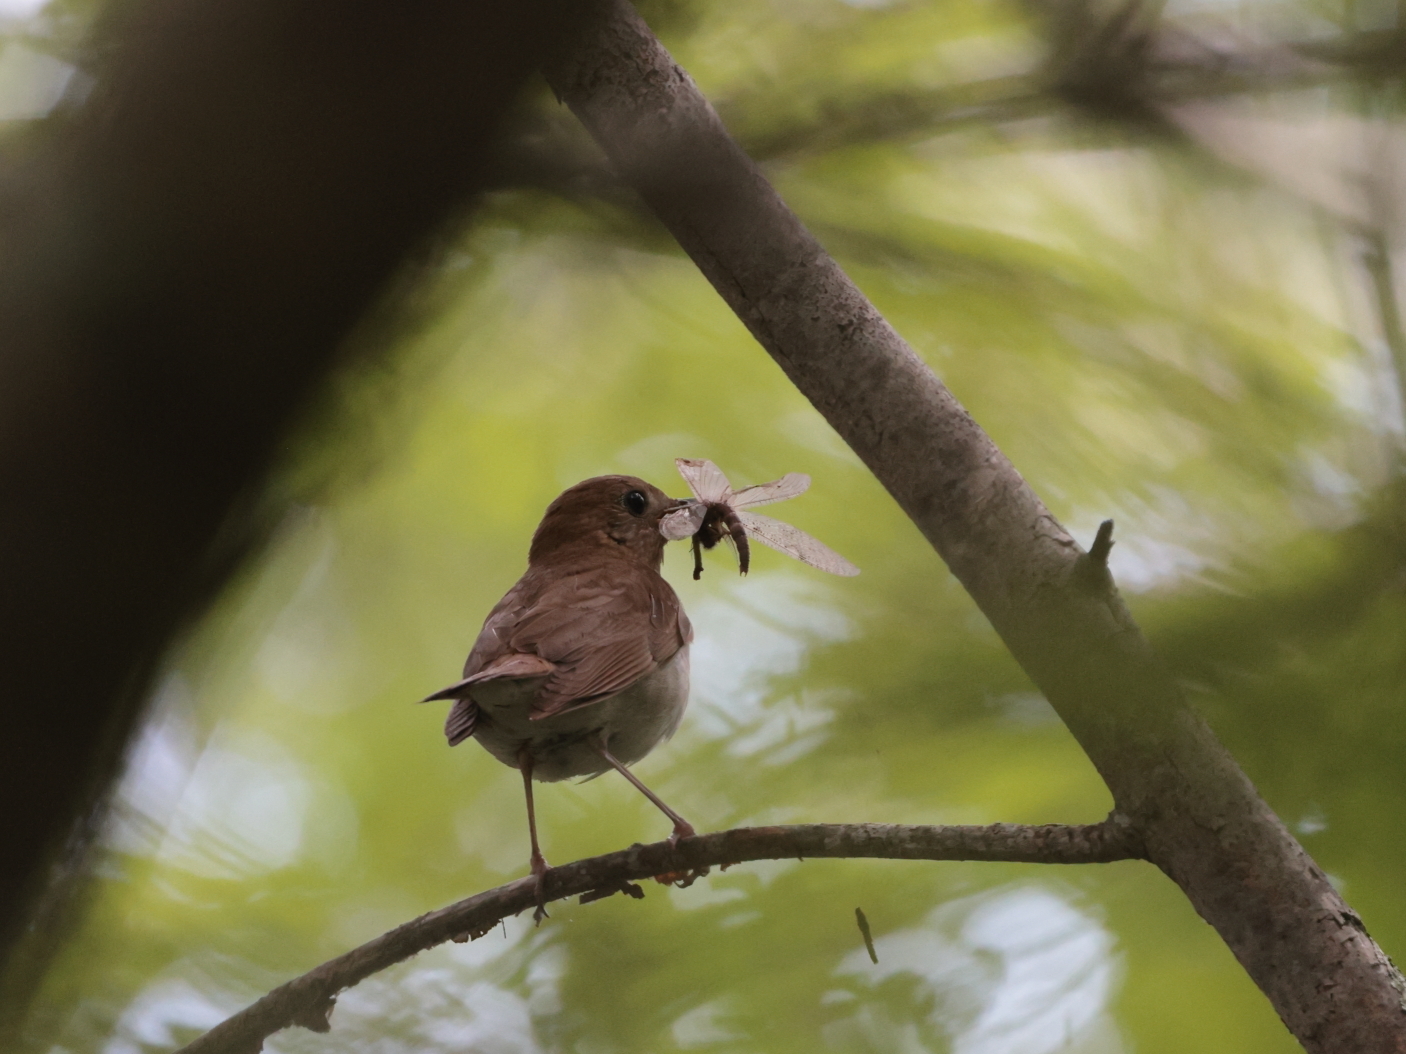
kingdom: Animalia
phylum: Chordata
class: Aves
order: Passeriformes
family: Turdidae
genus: Catharus
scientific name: Catharus fuscescens
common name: Veery
